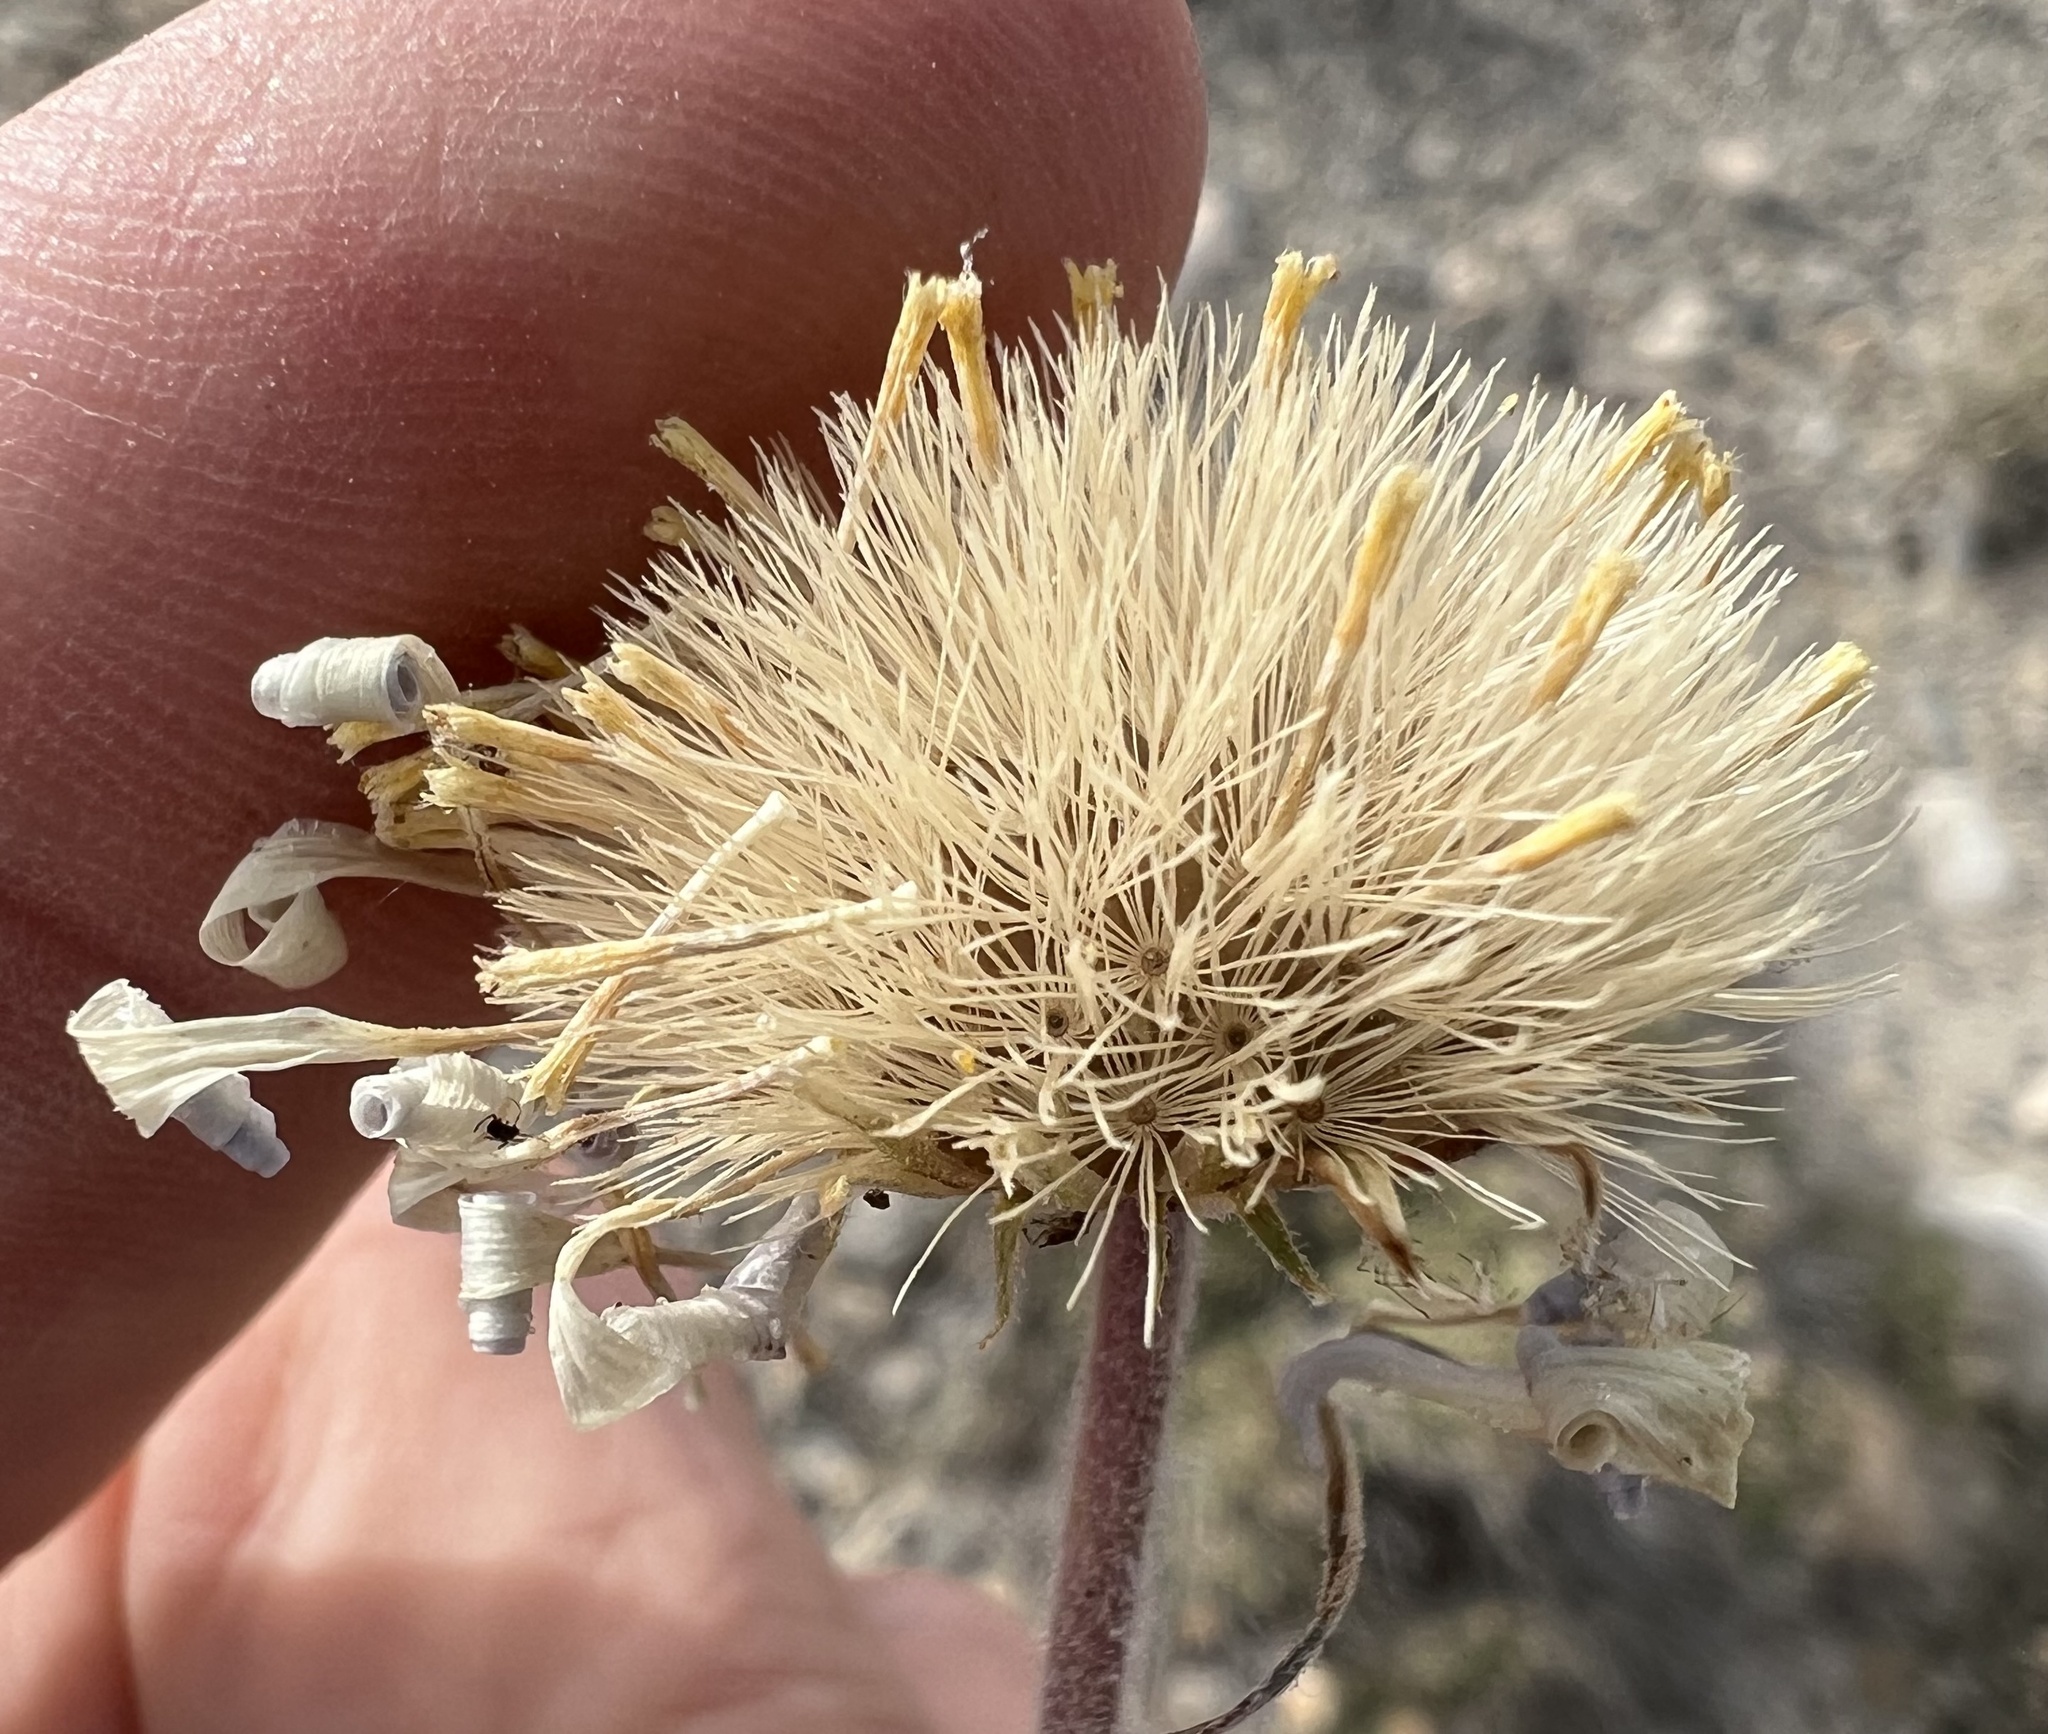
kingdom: Plantae
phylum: Tracheophyta
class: Magnoliopsida
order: Asterales
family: Asteraceae
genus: Xylorhiza
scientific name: Xylorhiza tortifolia
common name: Hurt-leaf woody-aster
